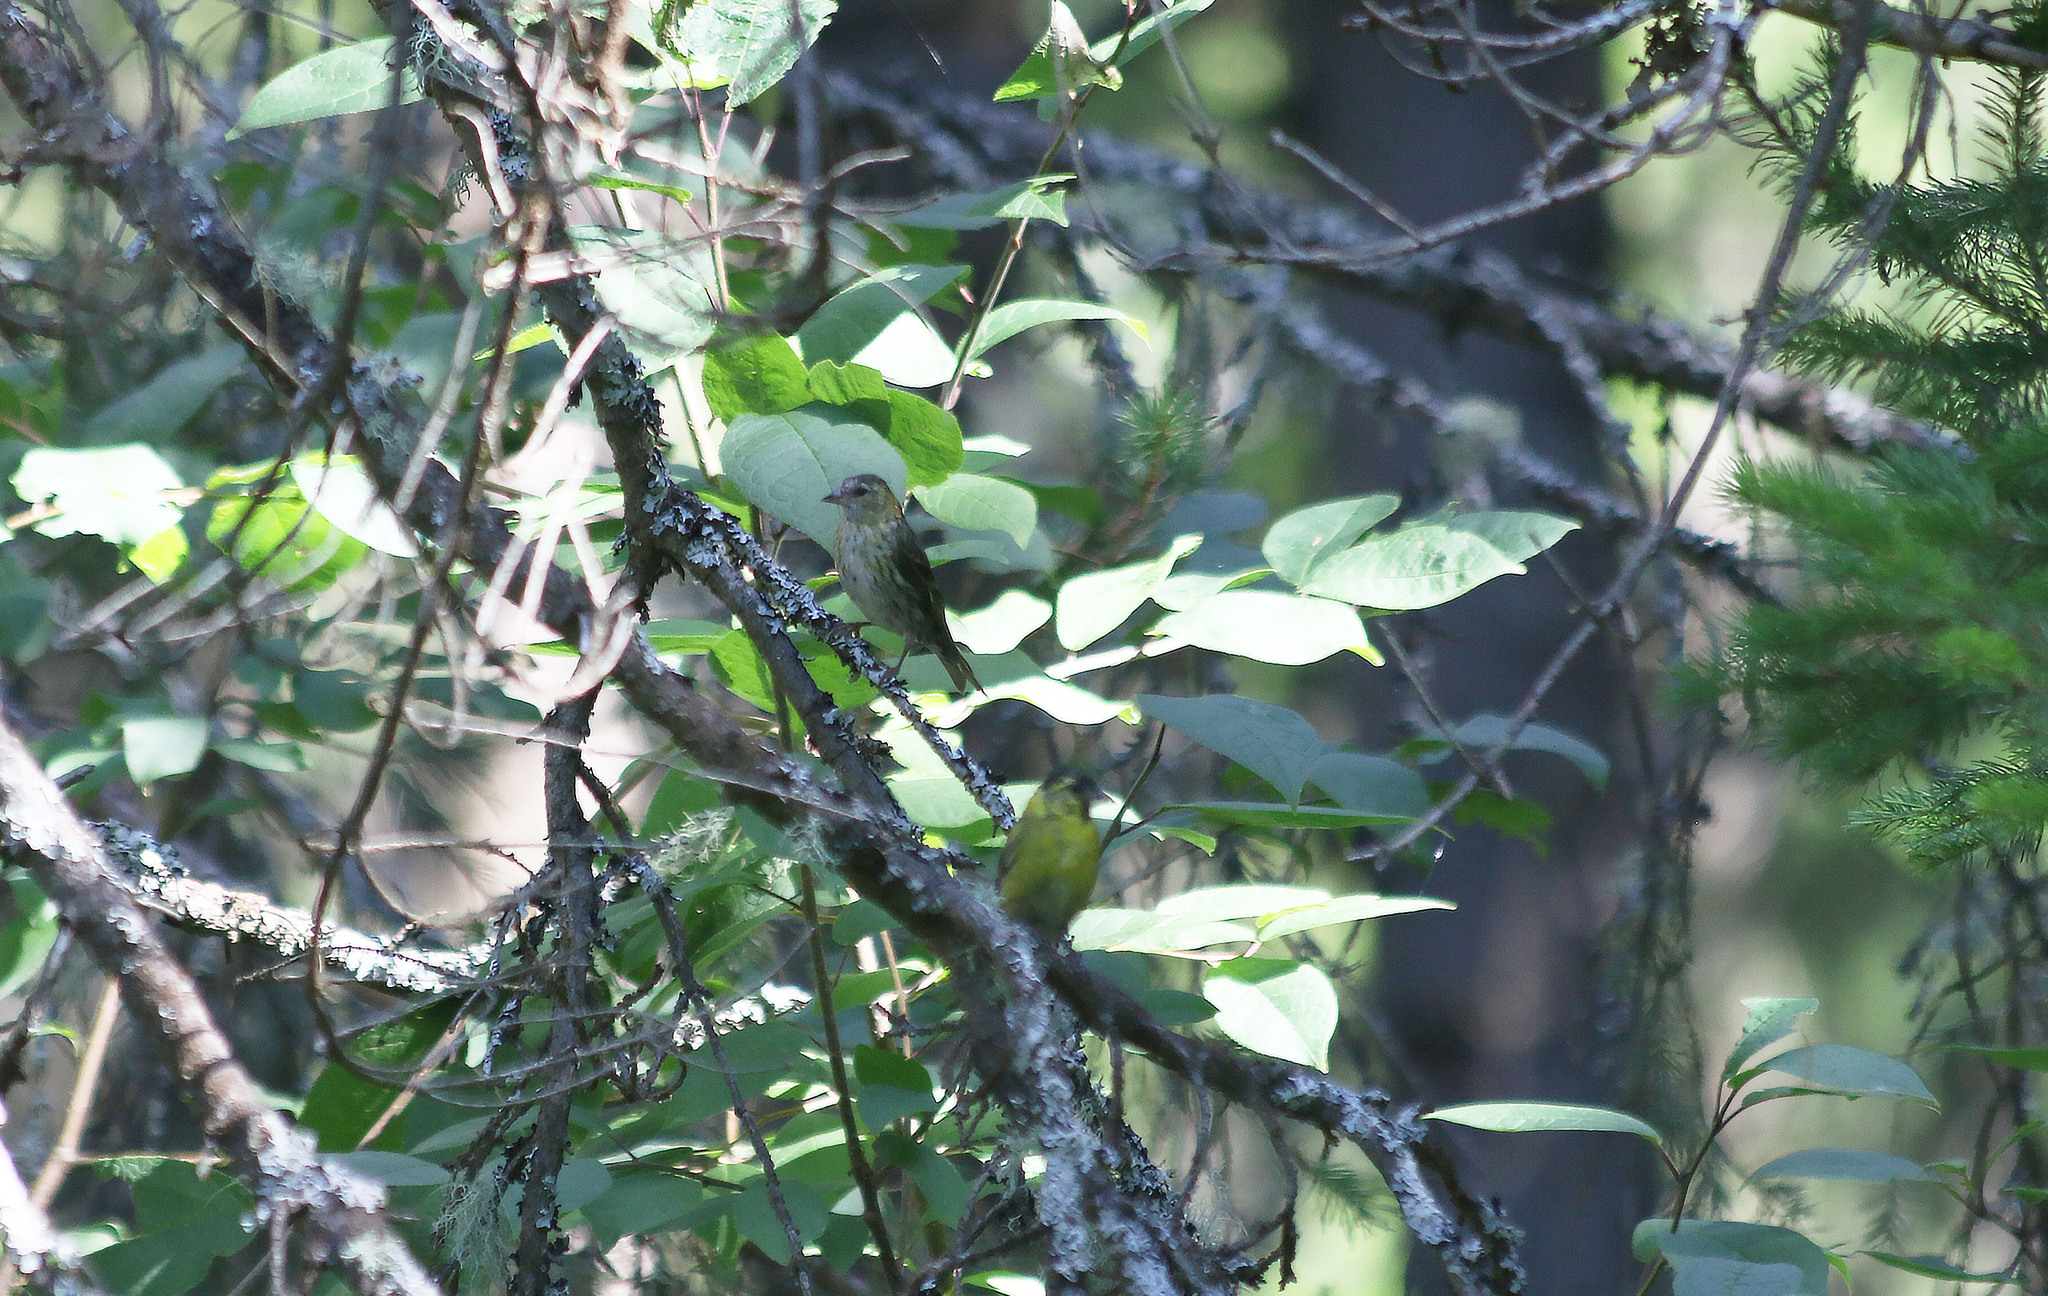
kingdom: Animalia
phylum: Chordata
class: Aves
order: Passeriformes
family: Fringillidae
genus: Spinus
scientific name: Spinus spinus
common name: Eurasian siskin
